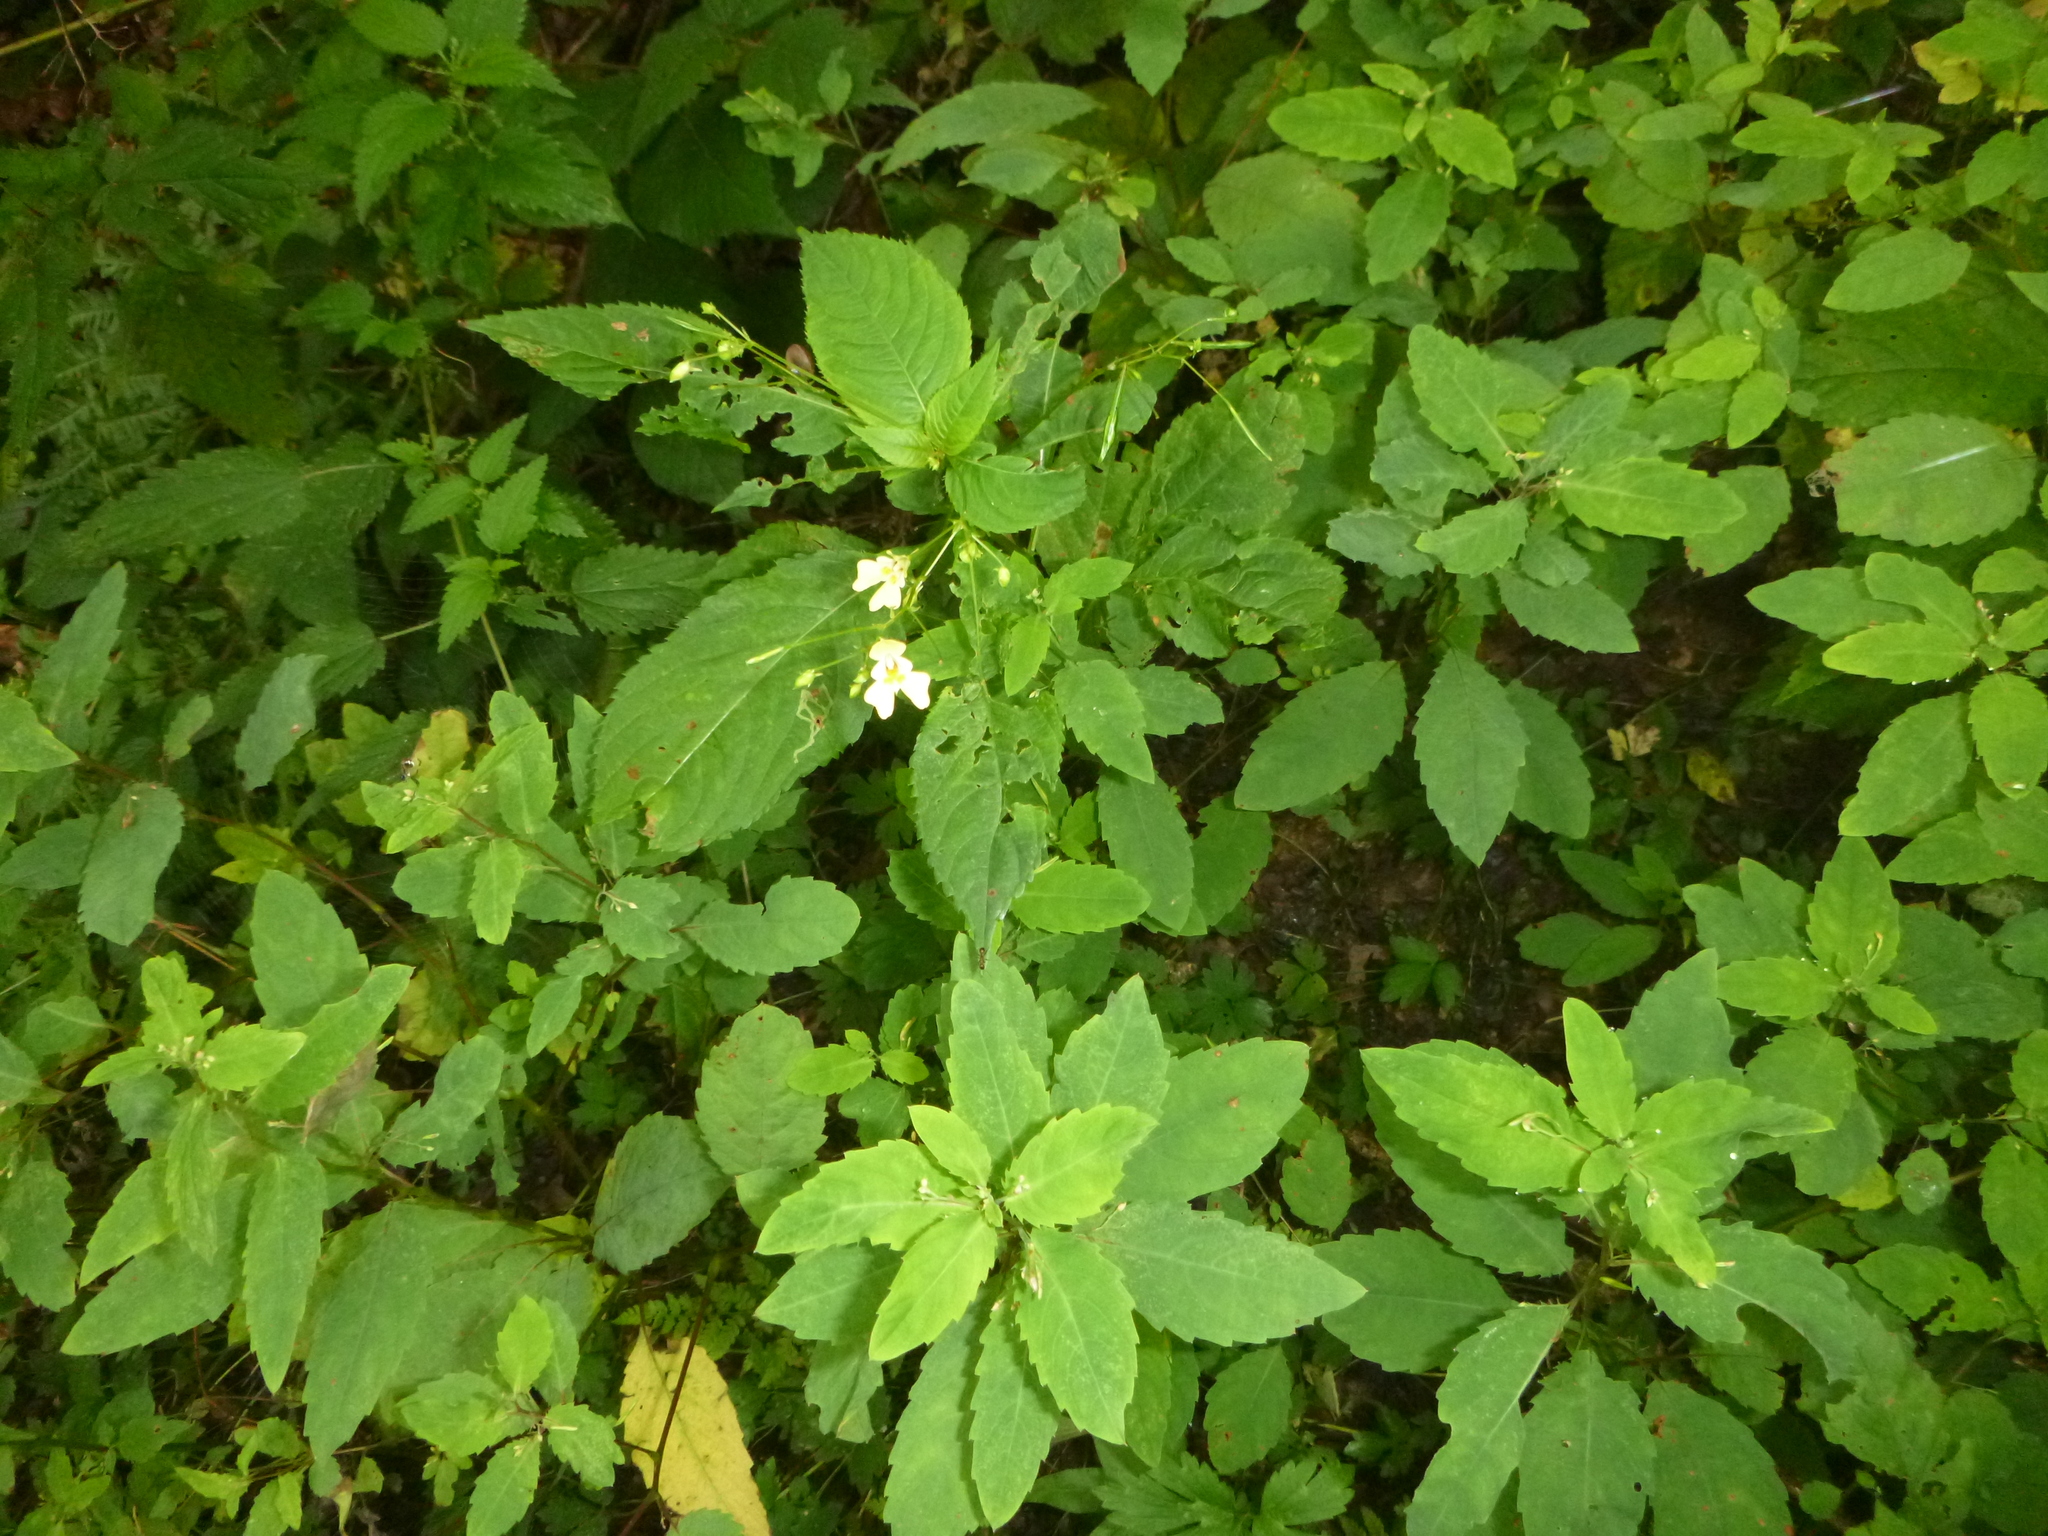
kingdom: Plantae
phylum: Tracheophyta
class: Magnoliopsida
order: Ericales
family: Balsaminaceae
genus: Impatiens
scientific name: Impatiens noli-tangere
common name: Touch-me-not balsam
